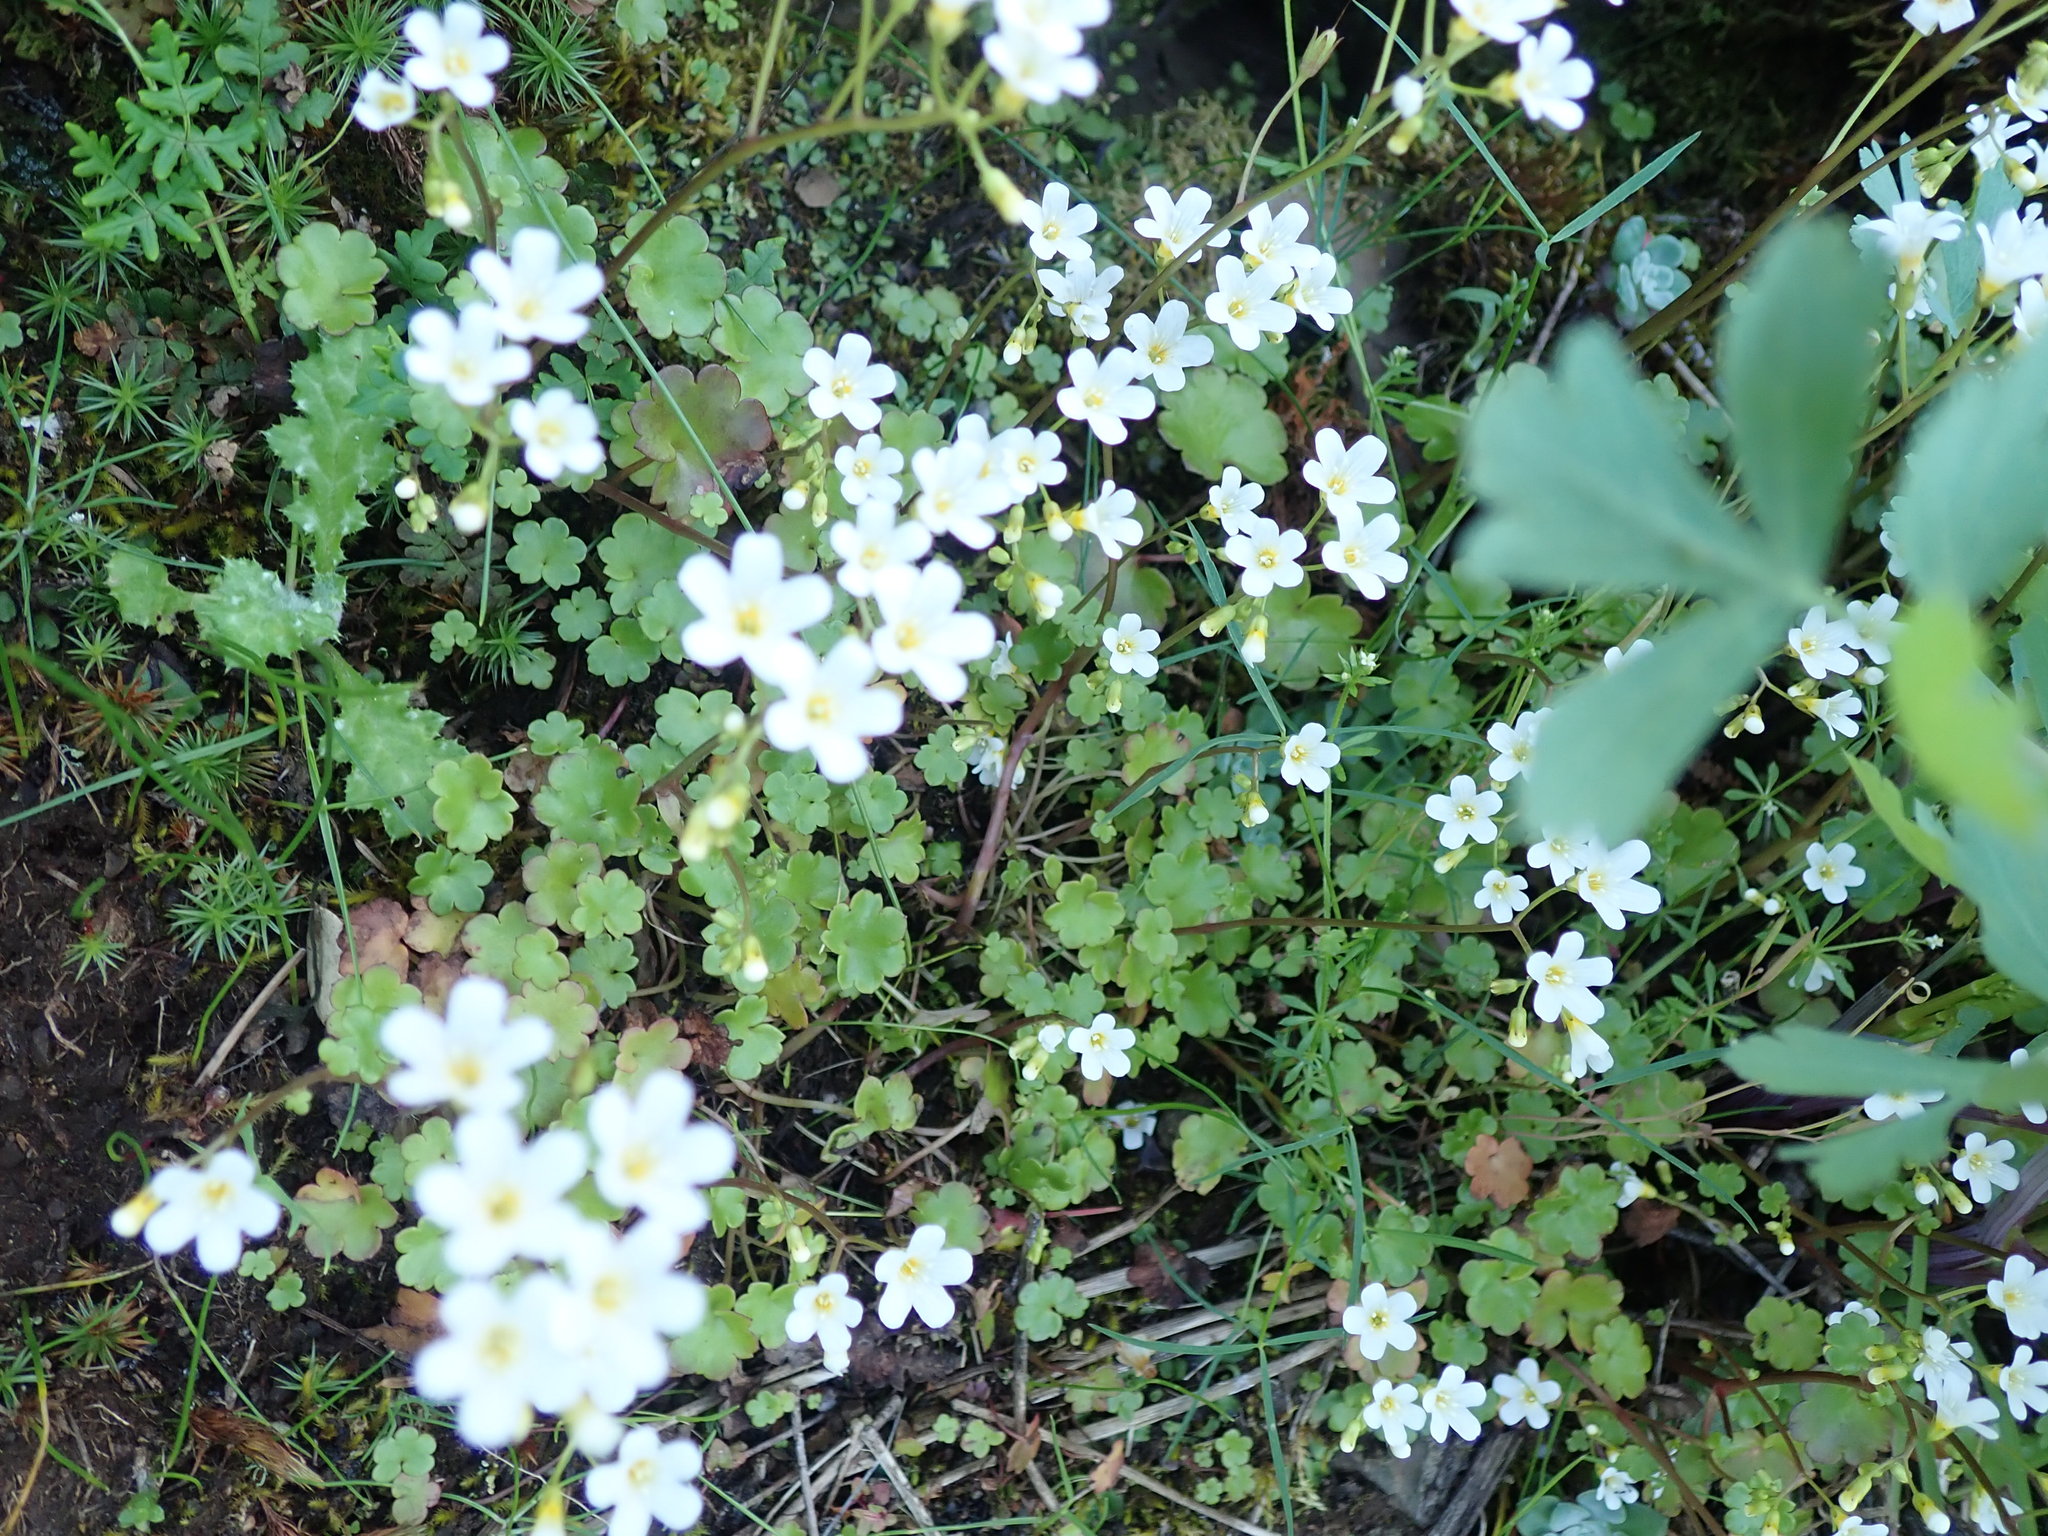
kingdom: Plantae
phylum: Tracheophyta
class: Magnoliopsida
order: Boraginales
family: Hydrophyllaceae
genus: Romanzoffia
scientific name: Romanzoffia californica
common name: California mistmaiden
